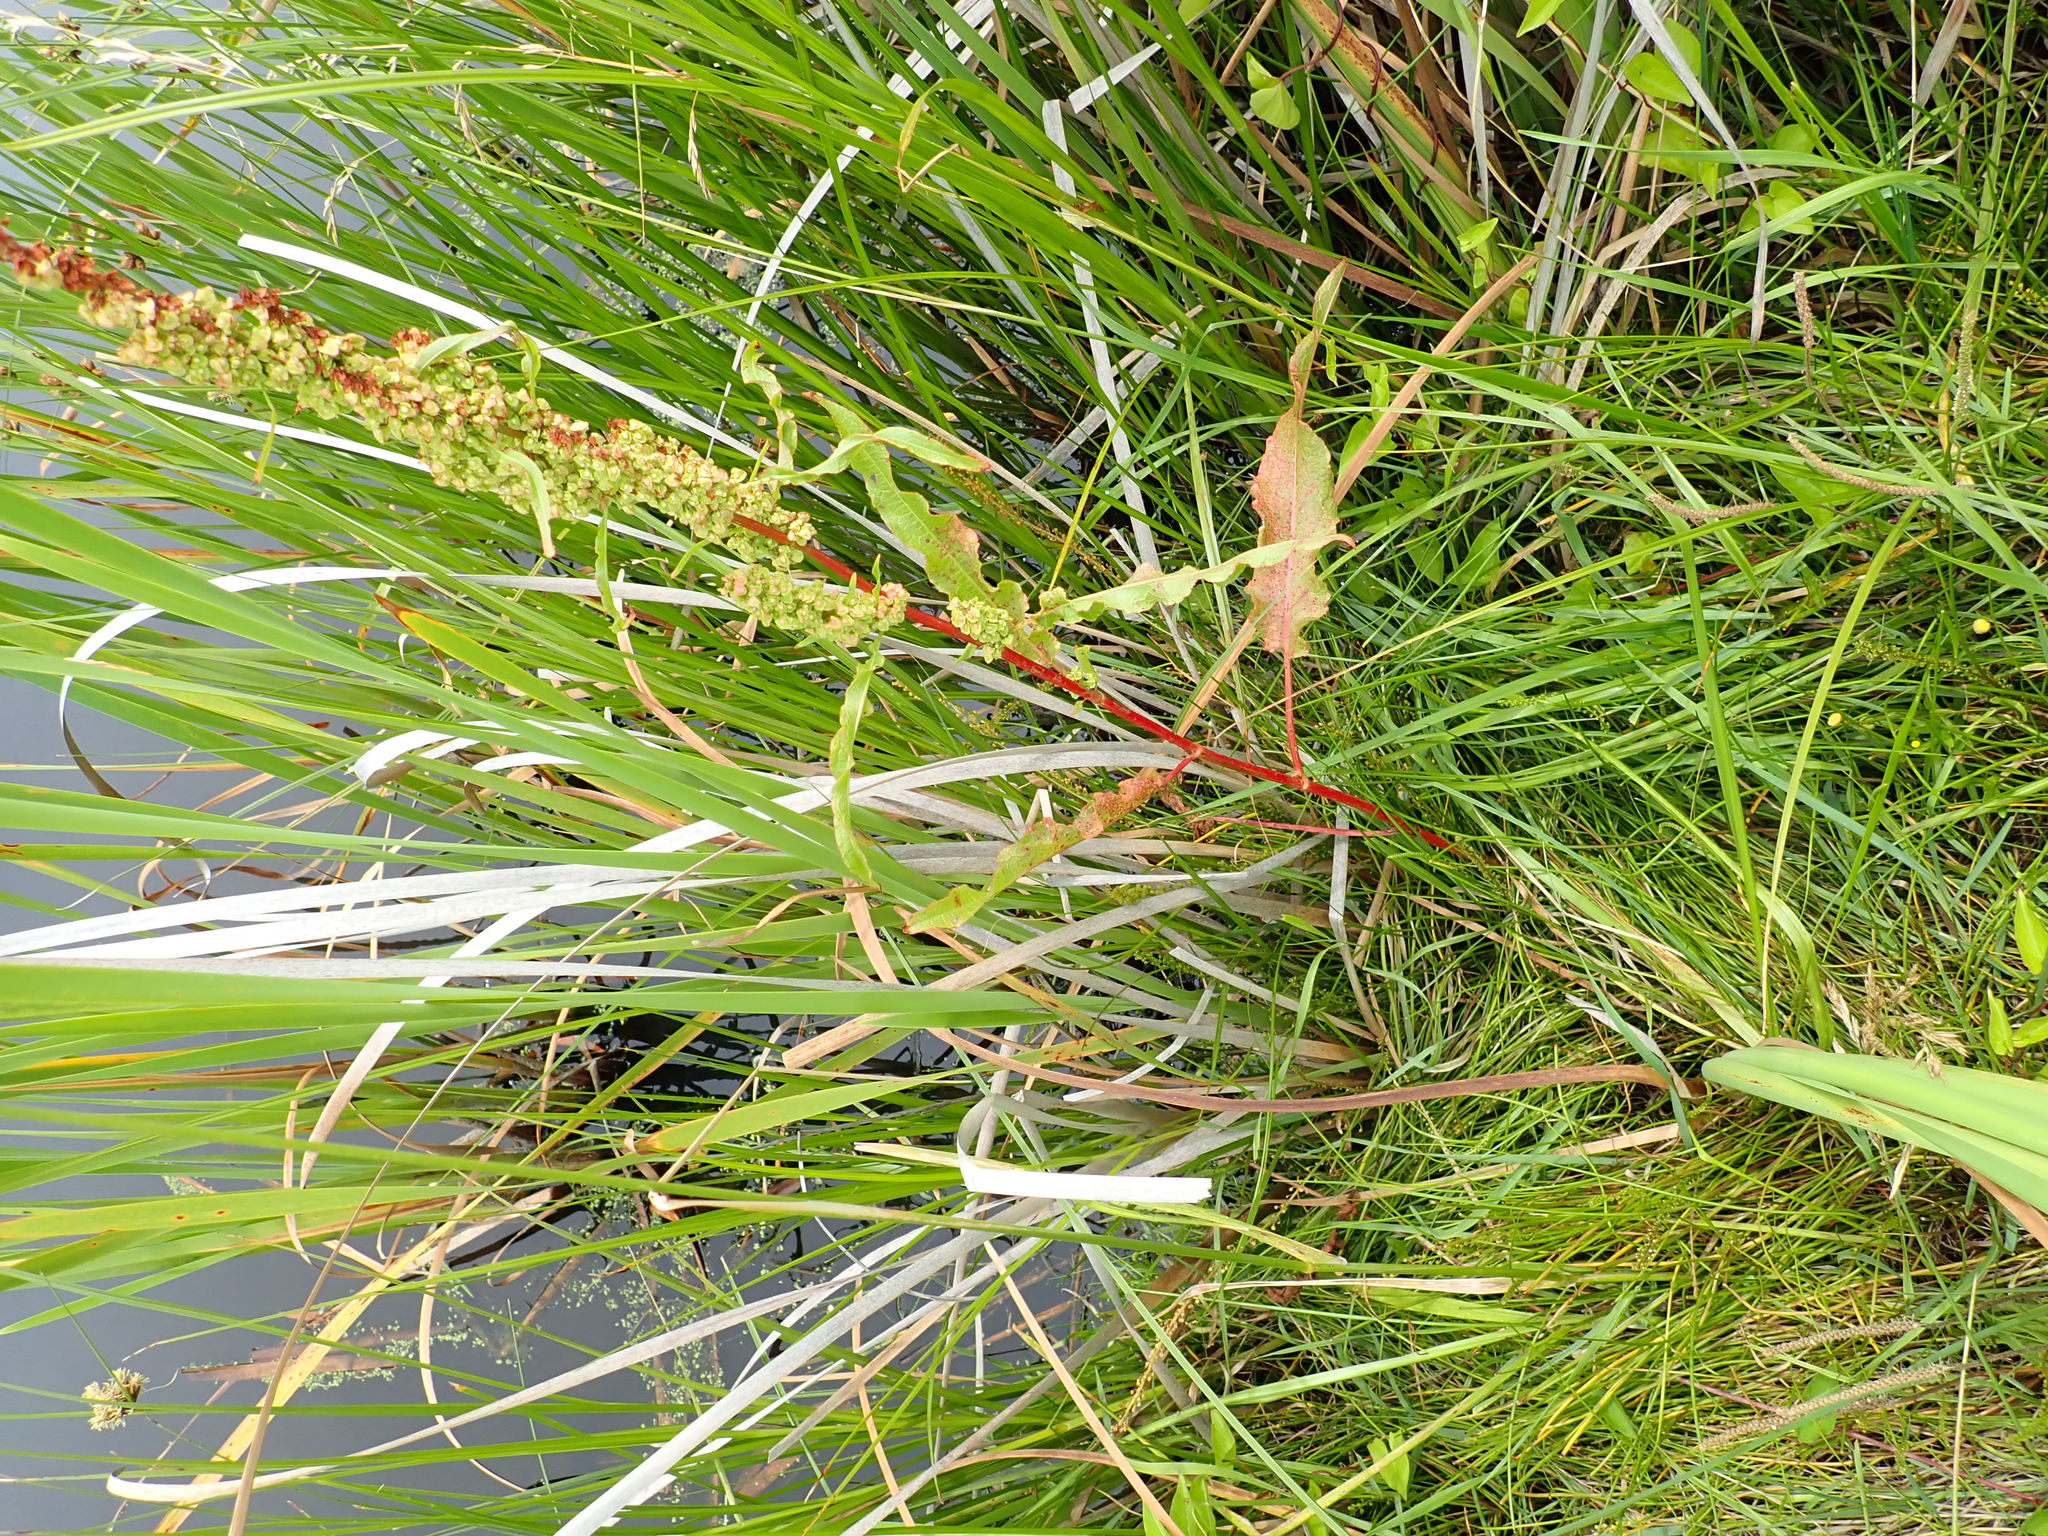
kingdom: Plantae
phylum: Tracheophyta
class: Magnoliopsida
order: Caryophyllales
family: Polygonaceae
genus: Rumex
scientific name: Rumex crispus
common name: Curled dock
